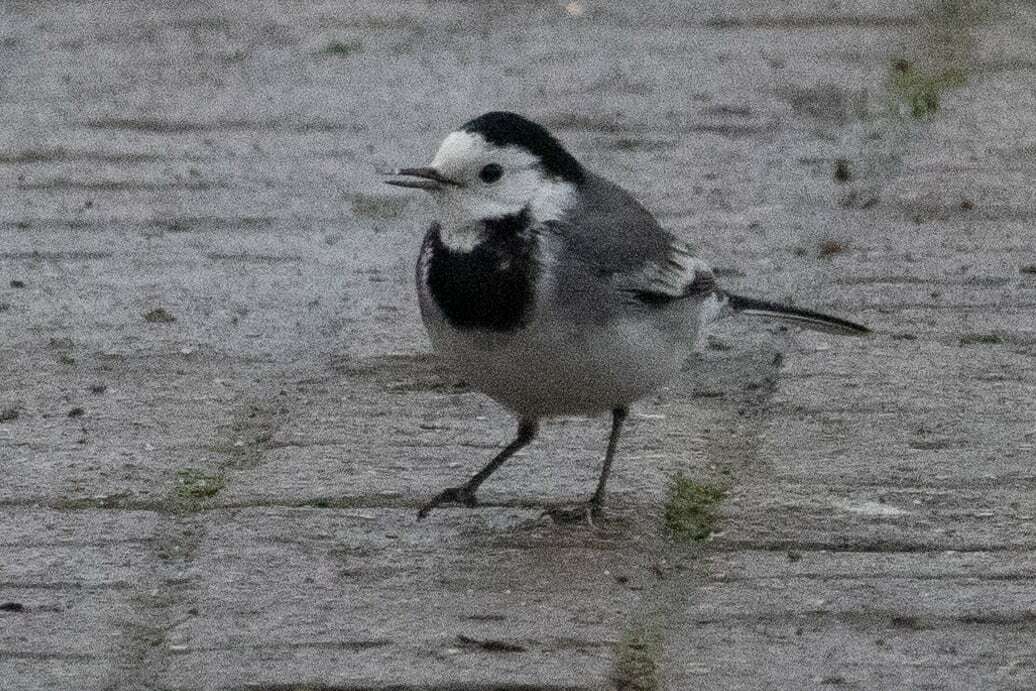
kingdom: Animalia
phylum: Chordata
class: Aves
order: Passeriformes
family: Motacillidae
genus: Motacilla
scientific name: Motacilla alba
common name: White wagtail
